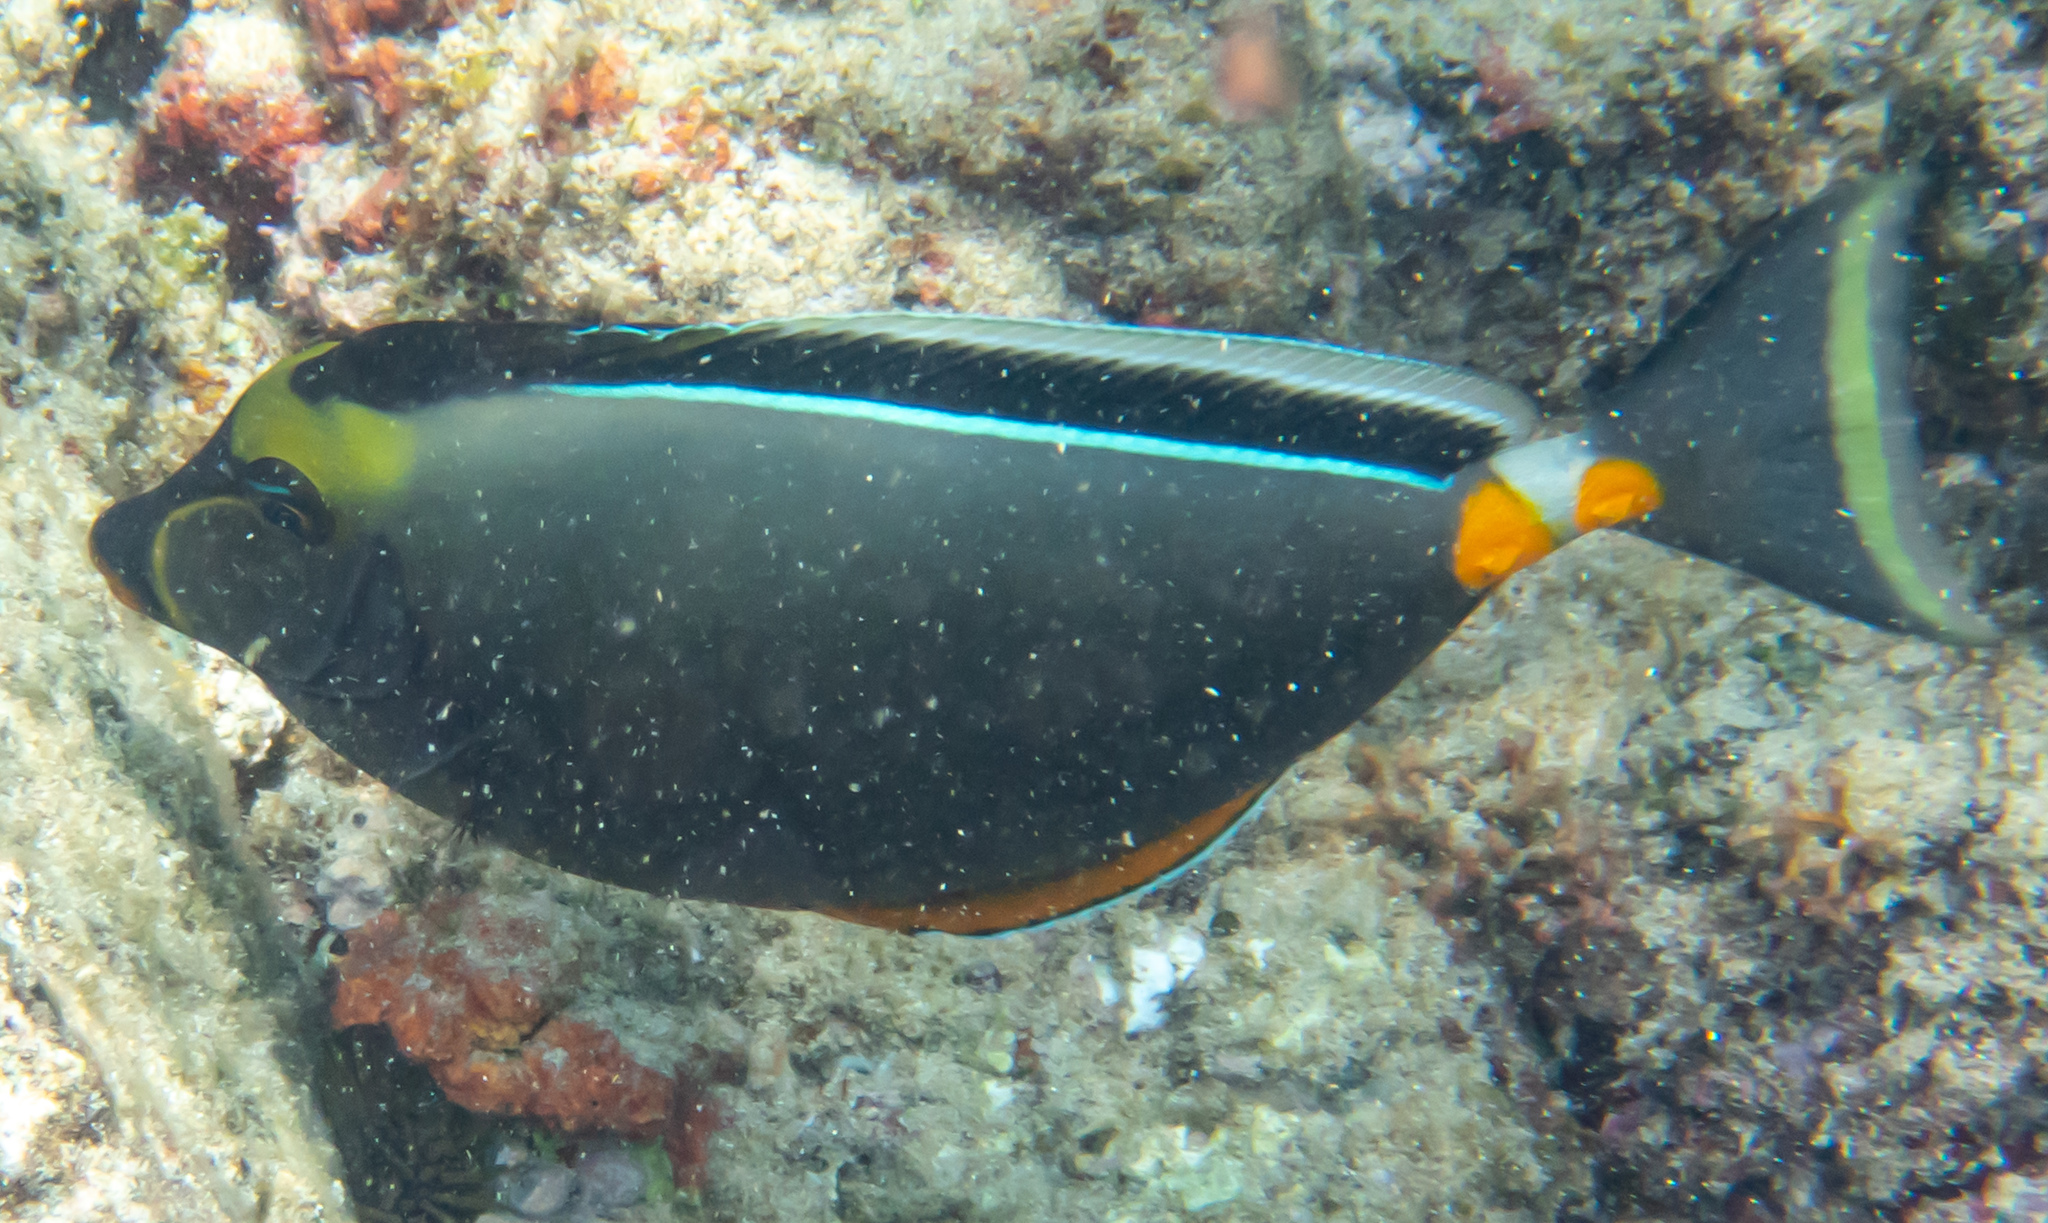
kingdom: Animalia
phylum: Chordata
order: Perciformes
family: Acanthuridae
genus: Naso
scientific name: Naso lituratus
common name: Orangespine unicornfish
